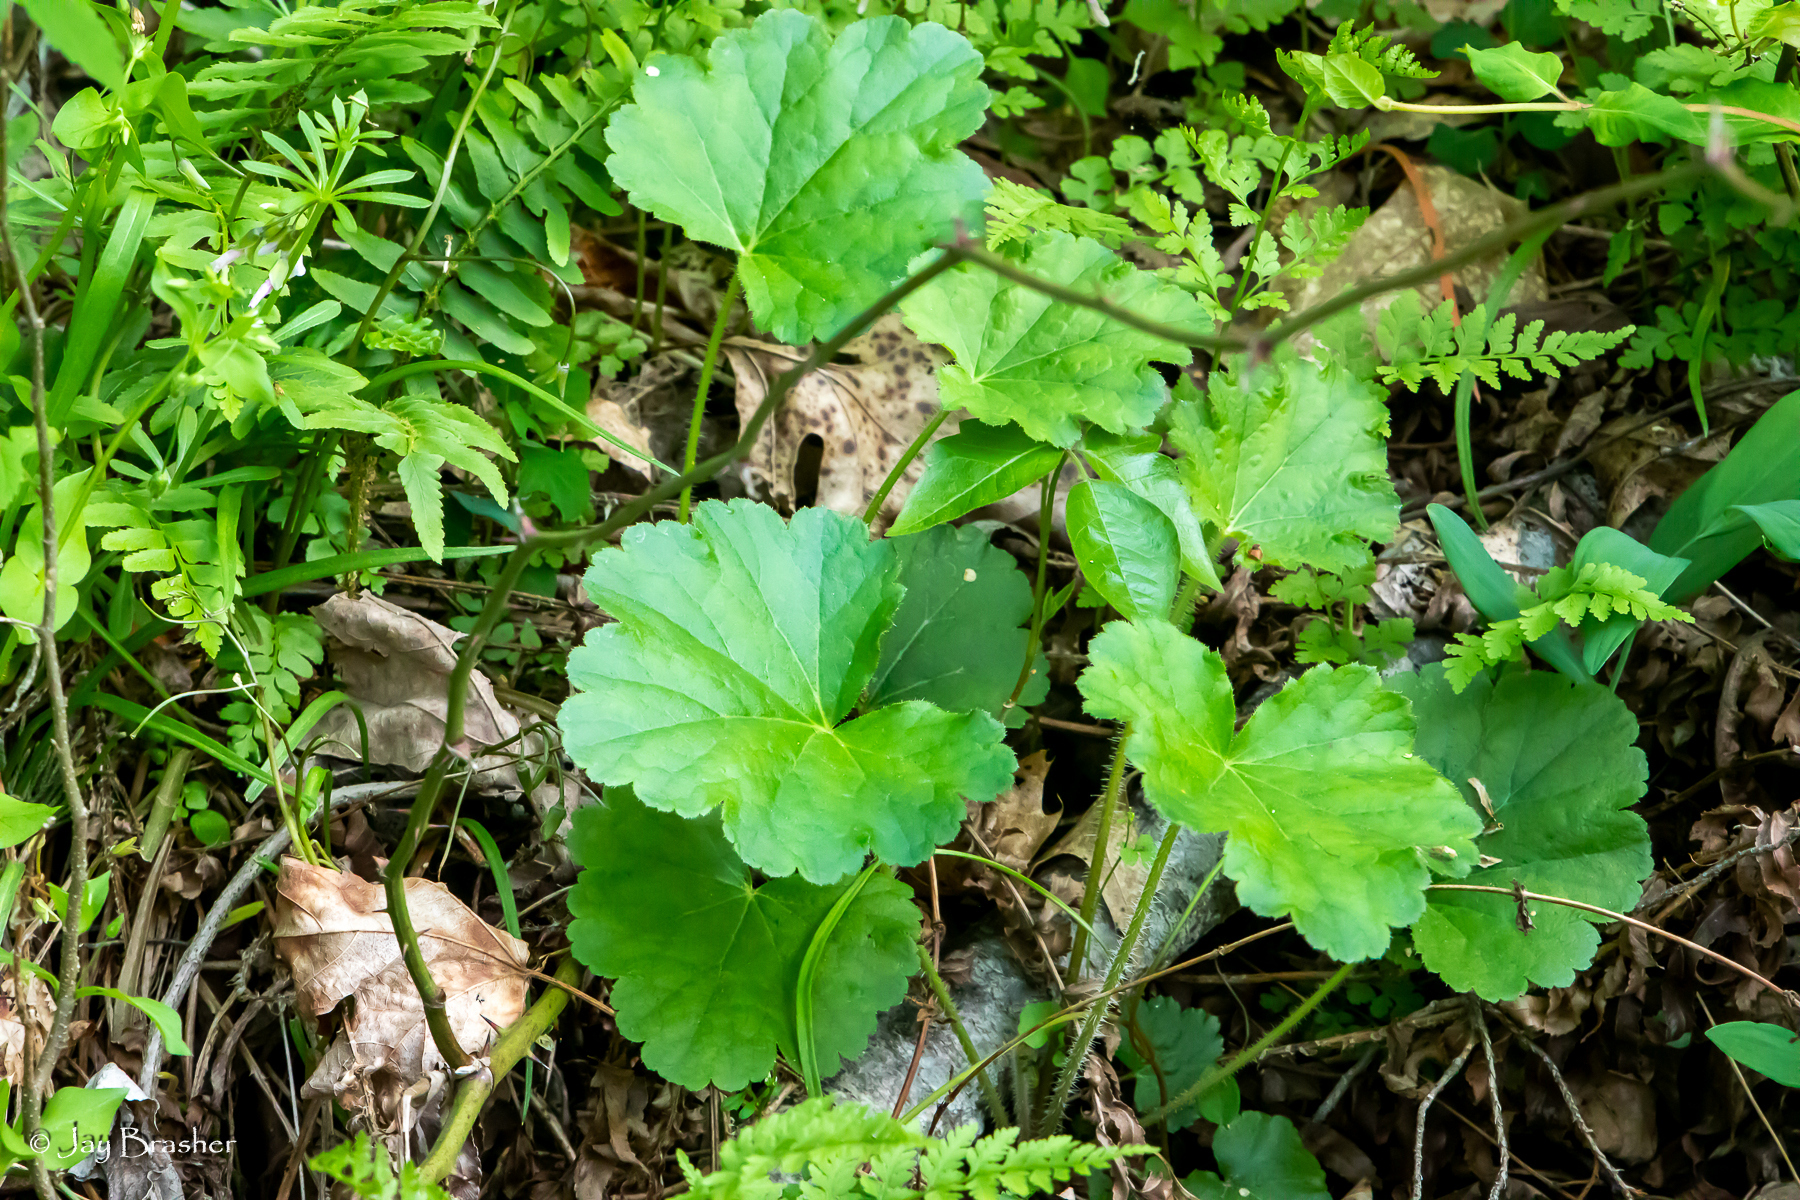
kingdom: Plantae
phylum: Tracheophyta
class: Magnoliopsida
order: Saxifragales
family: Saxifragaceae
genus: Heuchera
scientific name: Heuchera americana
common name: Alumroot
